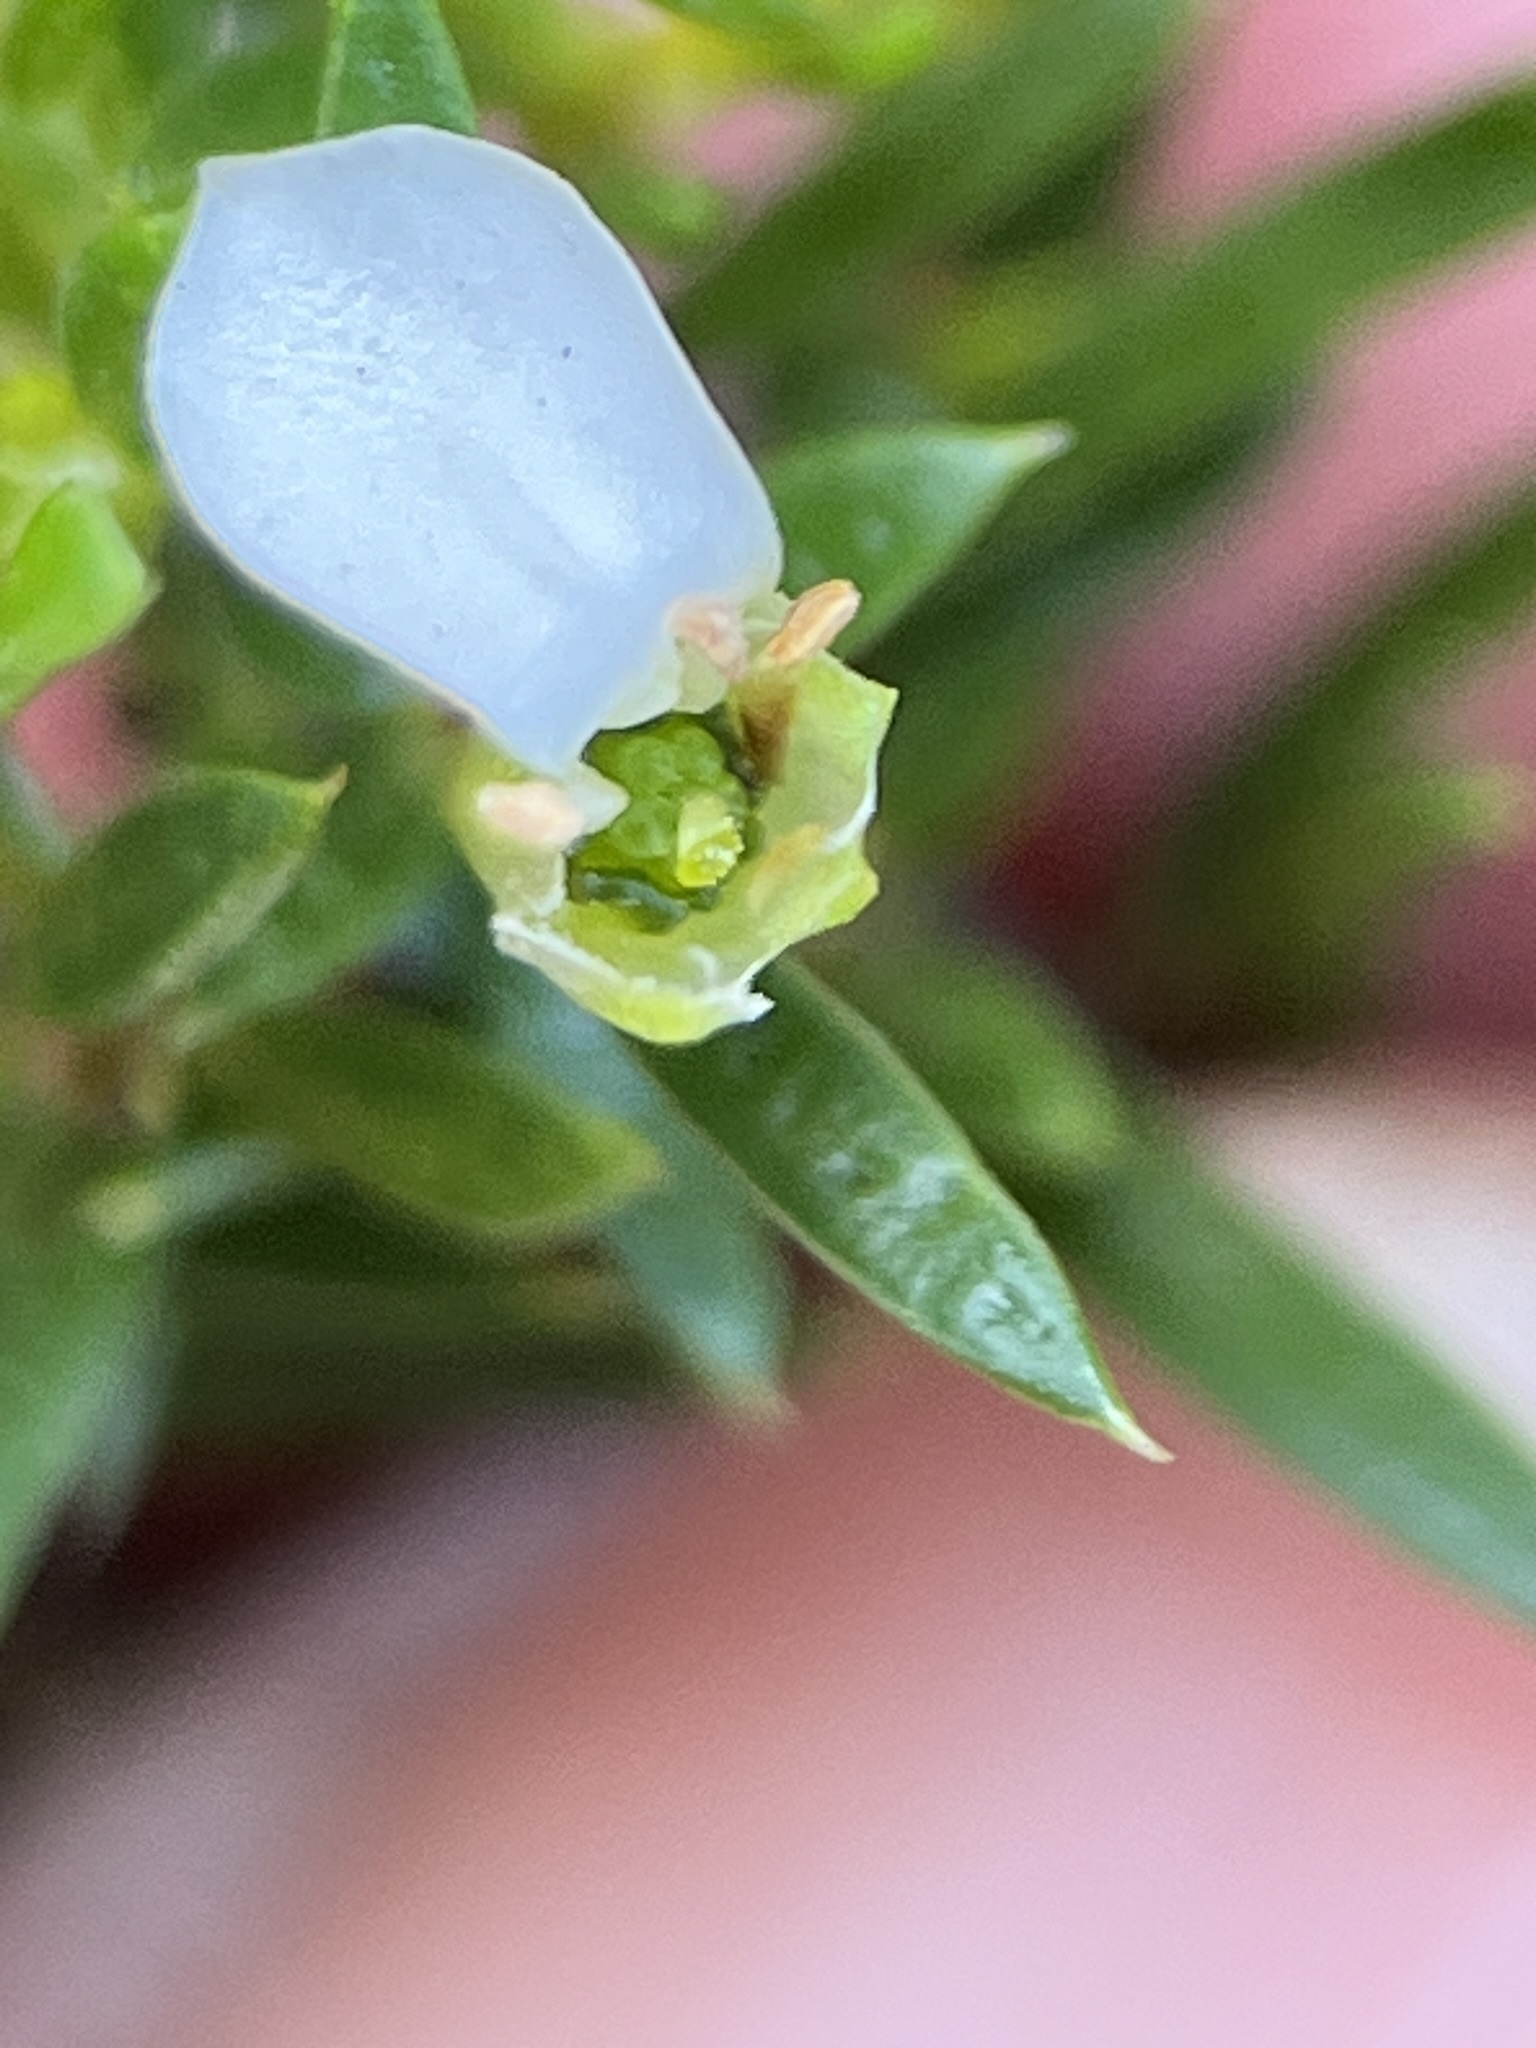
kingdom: Plantae
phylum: Tracheophyta
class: Magnoliopsida
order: Sapindales
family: Rutaceae
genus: Coleonema
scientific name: Coleonema album
